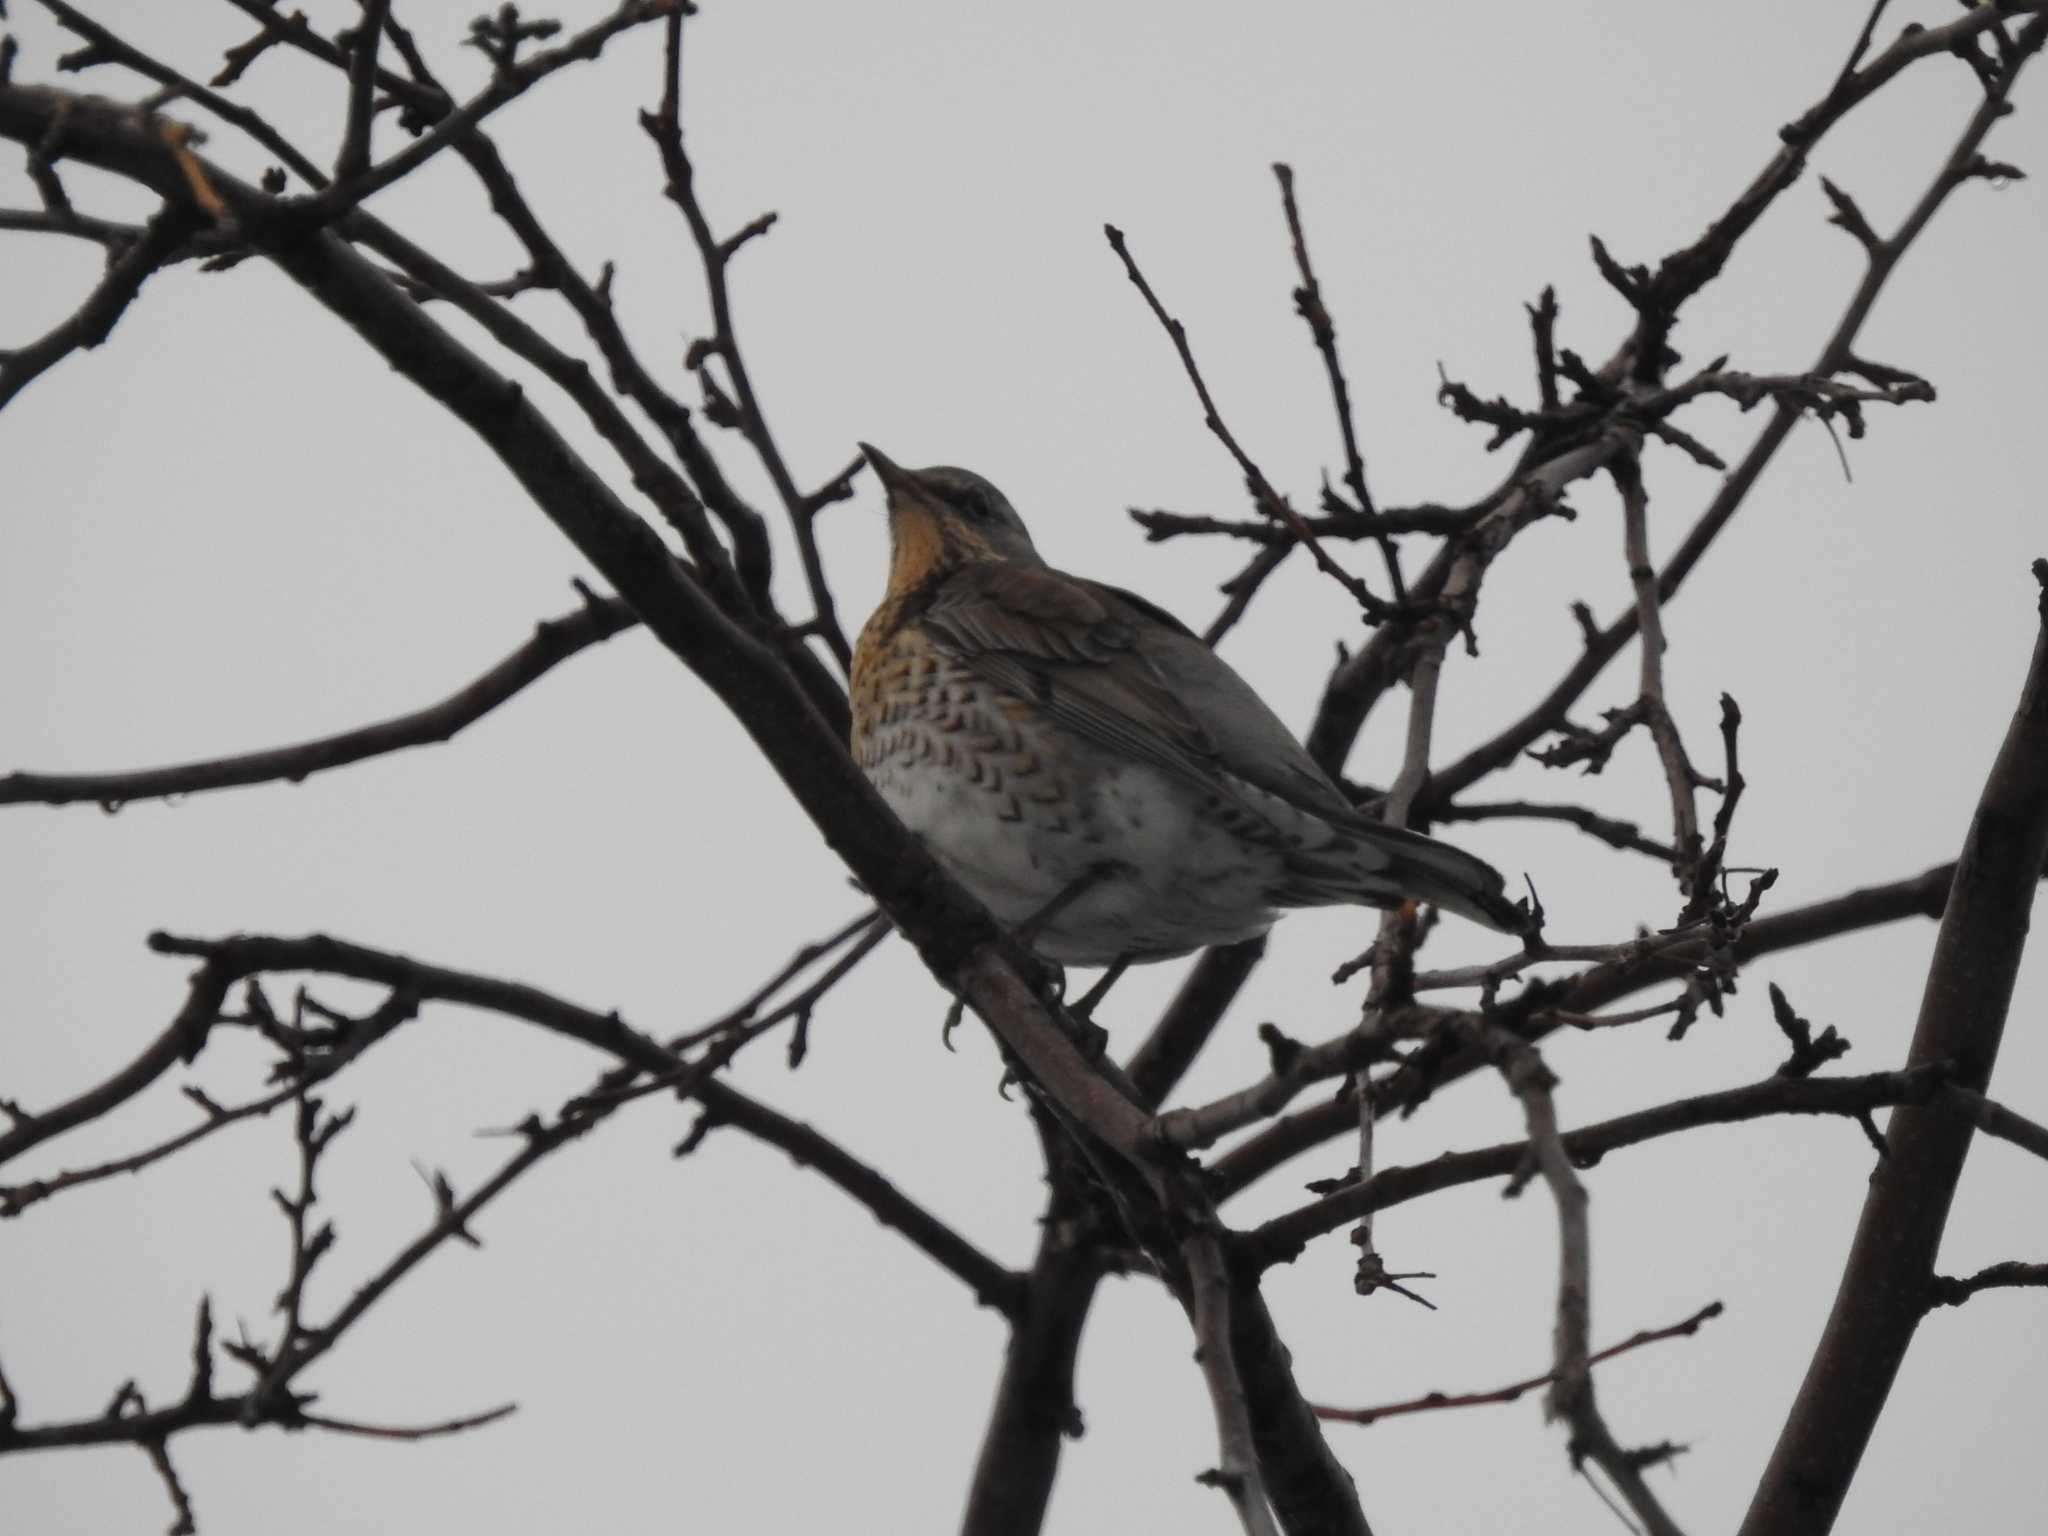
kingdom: Animalia
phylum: Chordata
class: Aves
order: Passeriformes
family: Turdidae
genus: Turdus
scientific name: Turdus pilaris
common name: Fieldfare
